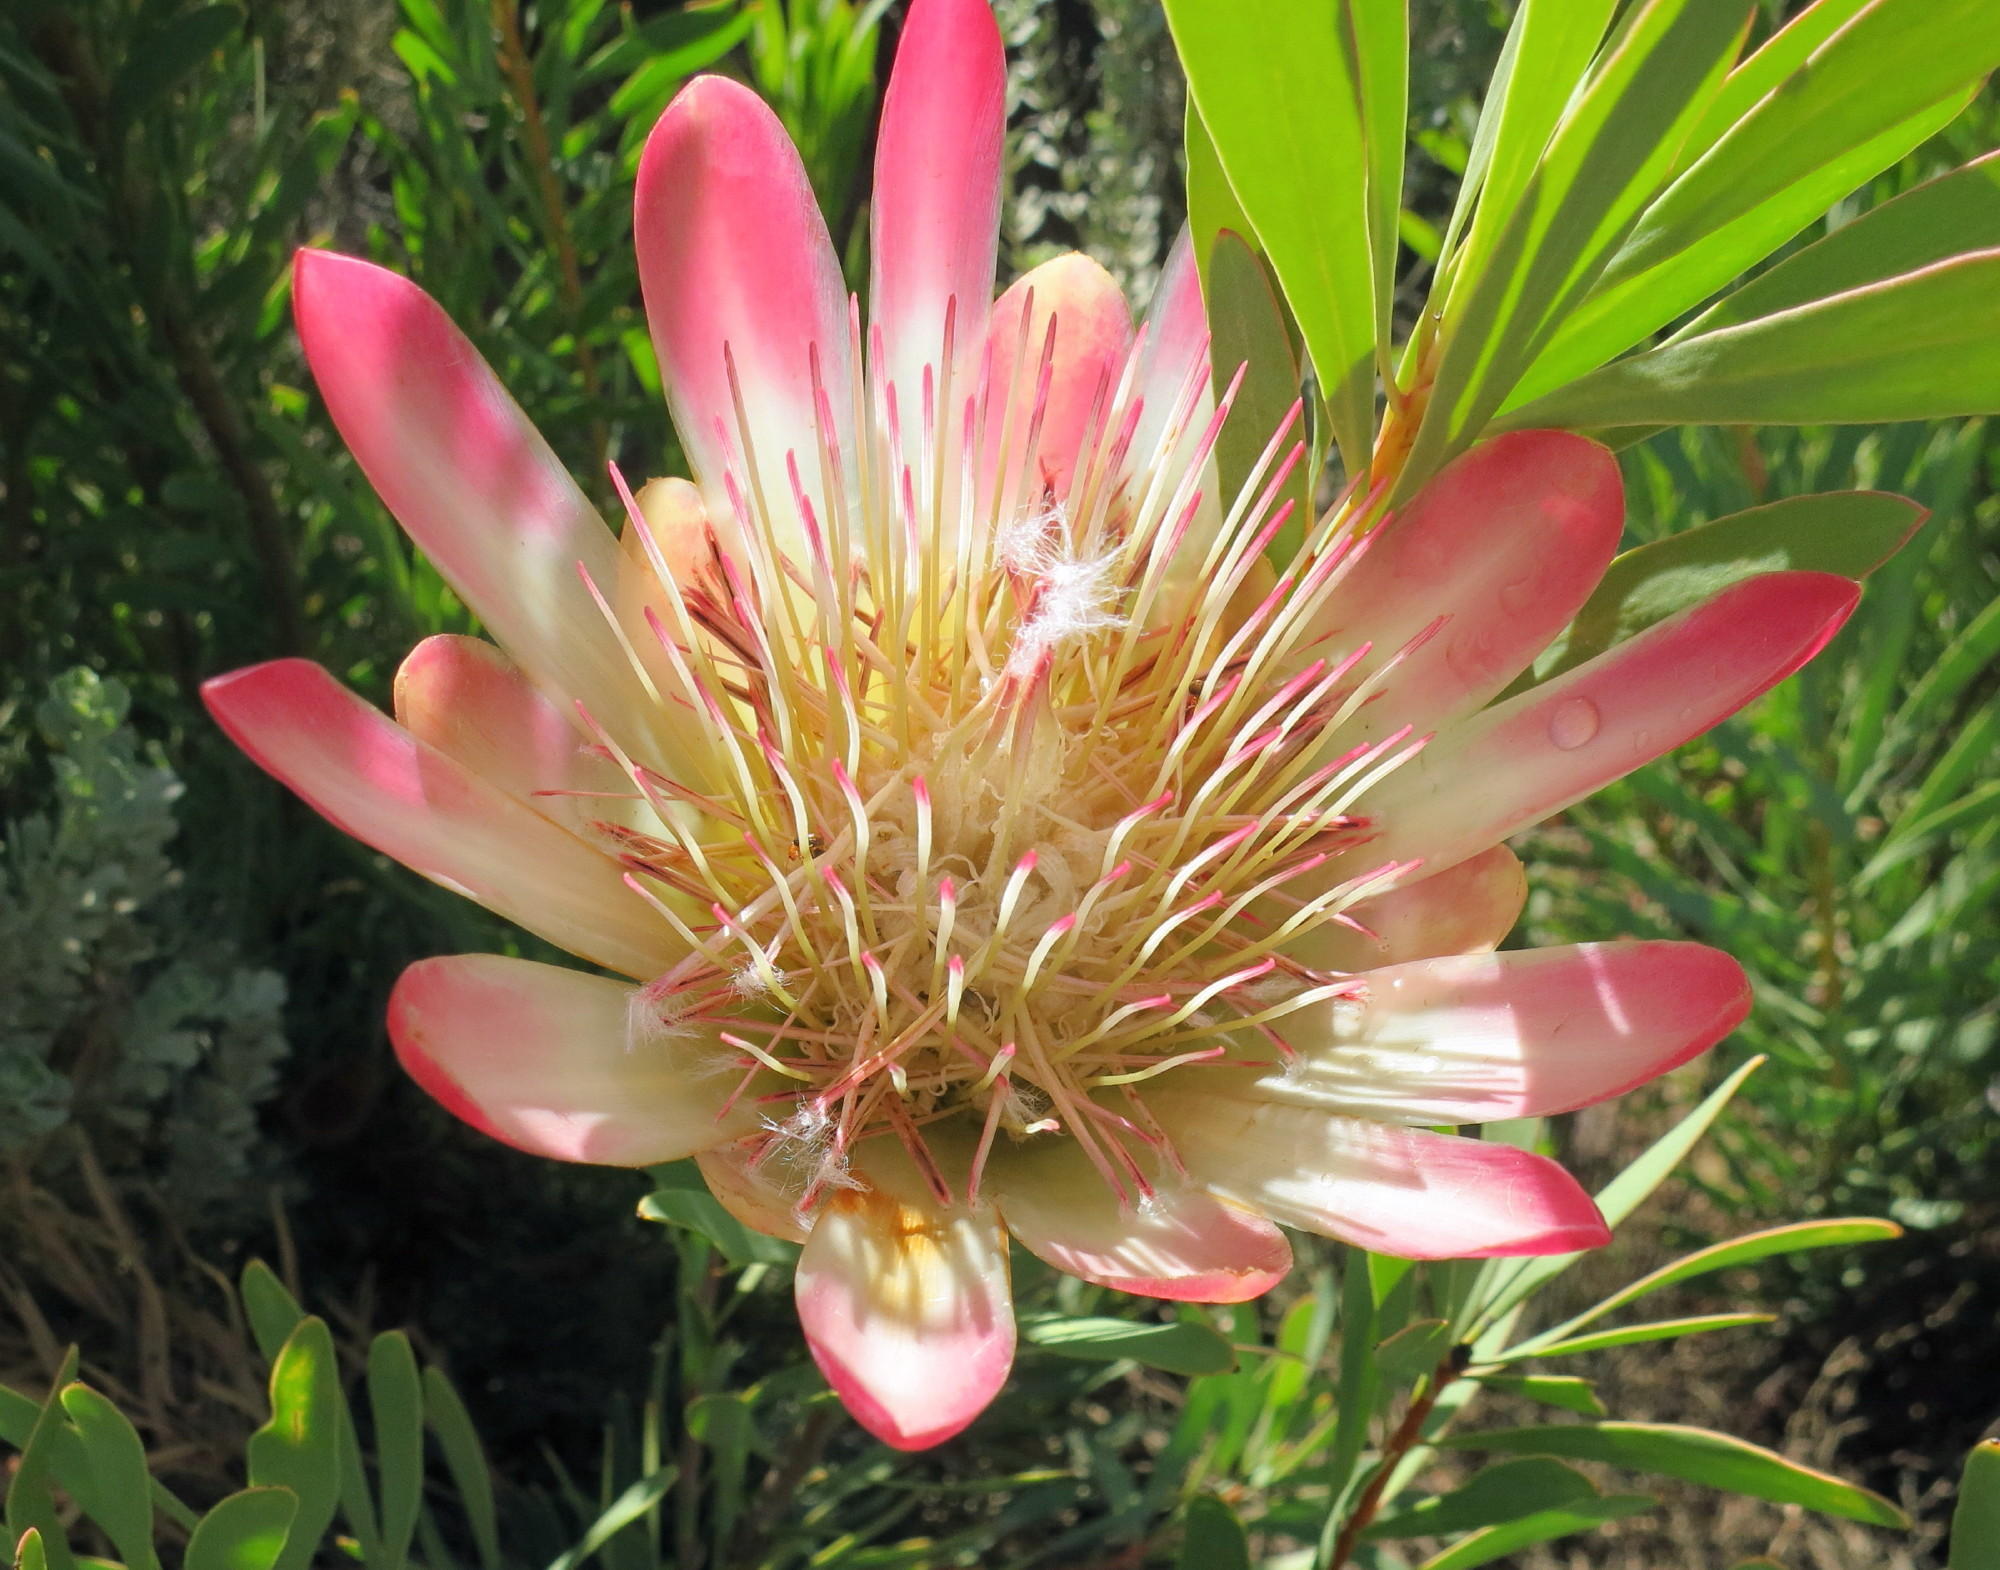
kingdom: Plantae
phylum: Tracheophyta
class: Magnoliopsida
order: Proteales
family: Proteaceae
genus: Protea
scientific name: Protea repens
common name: Sugarbush
